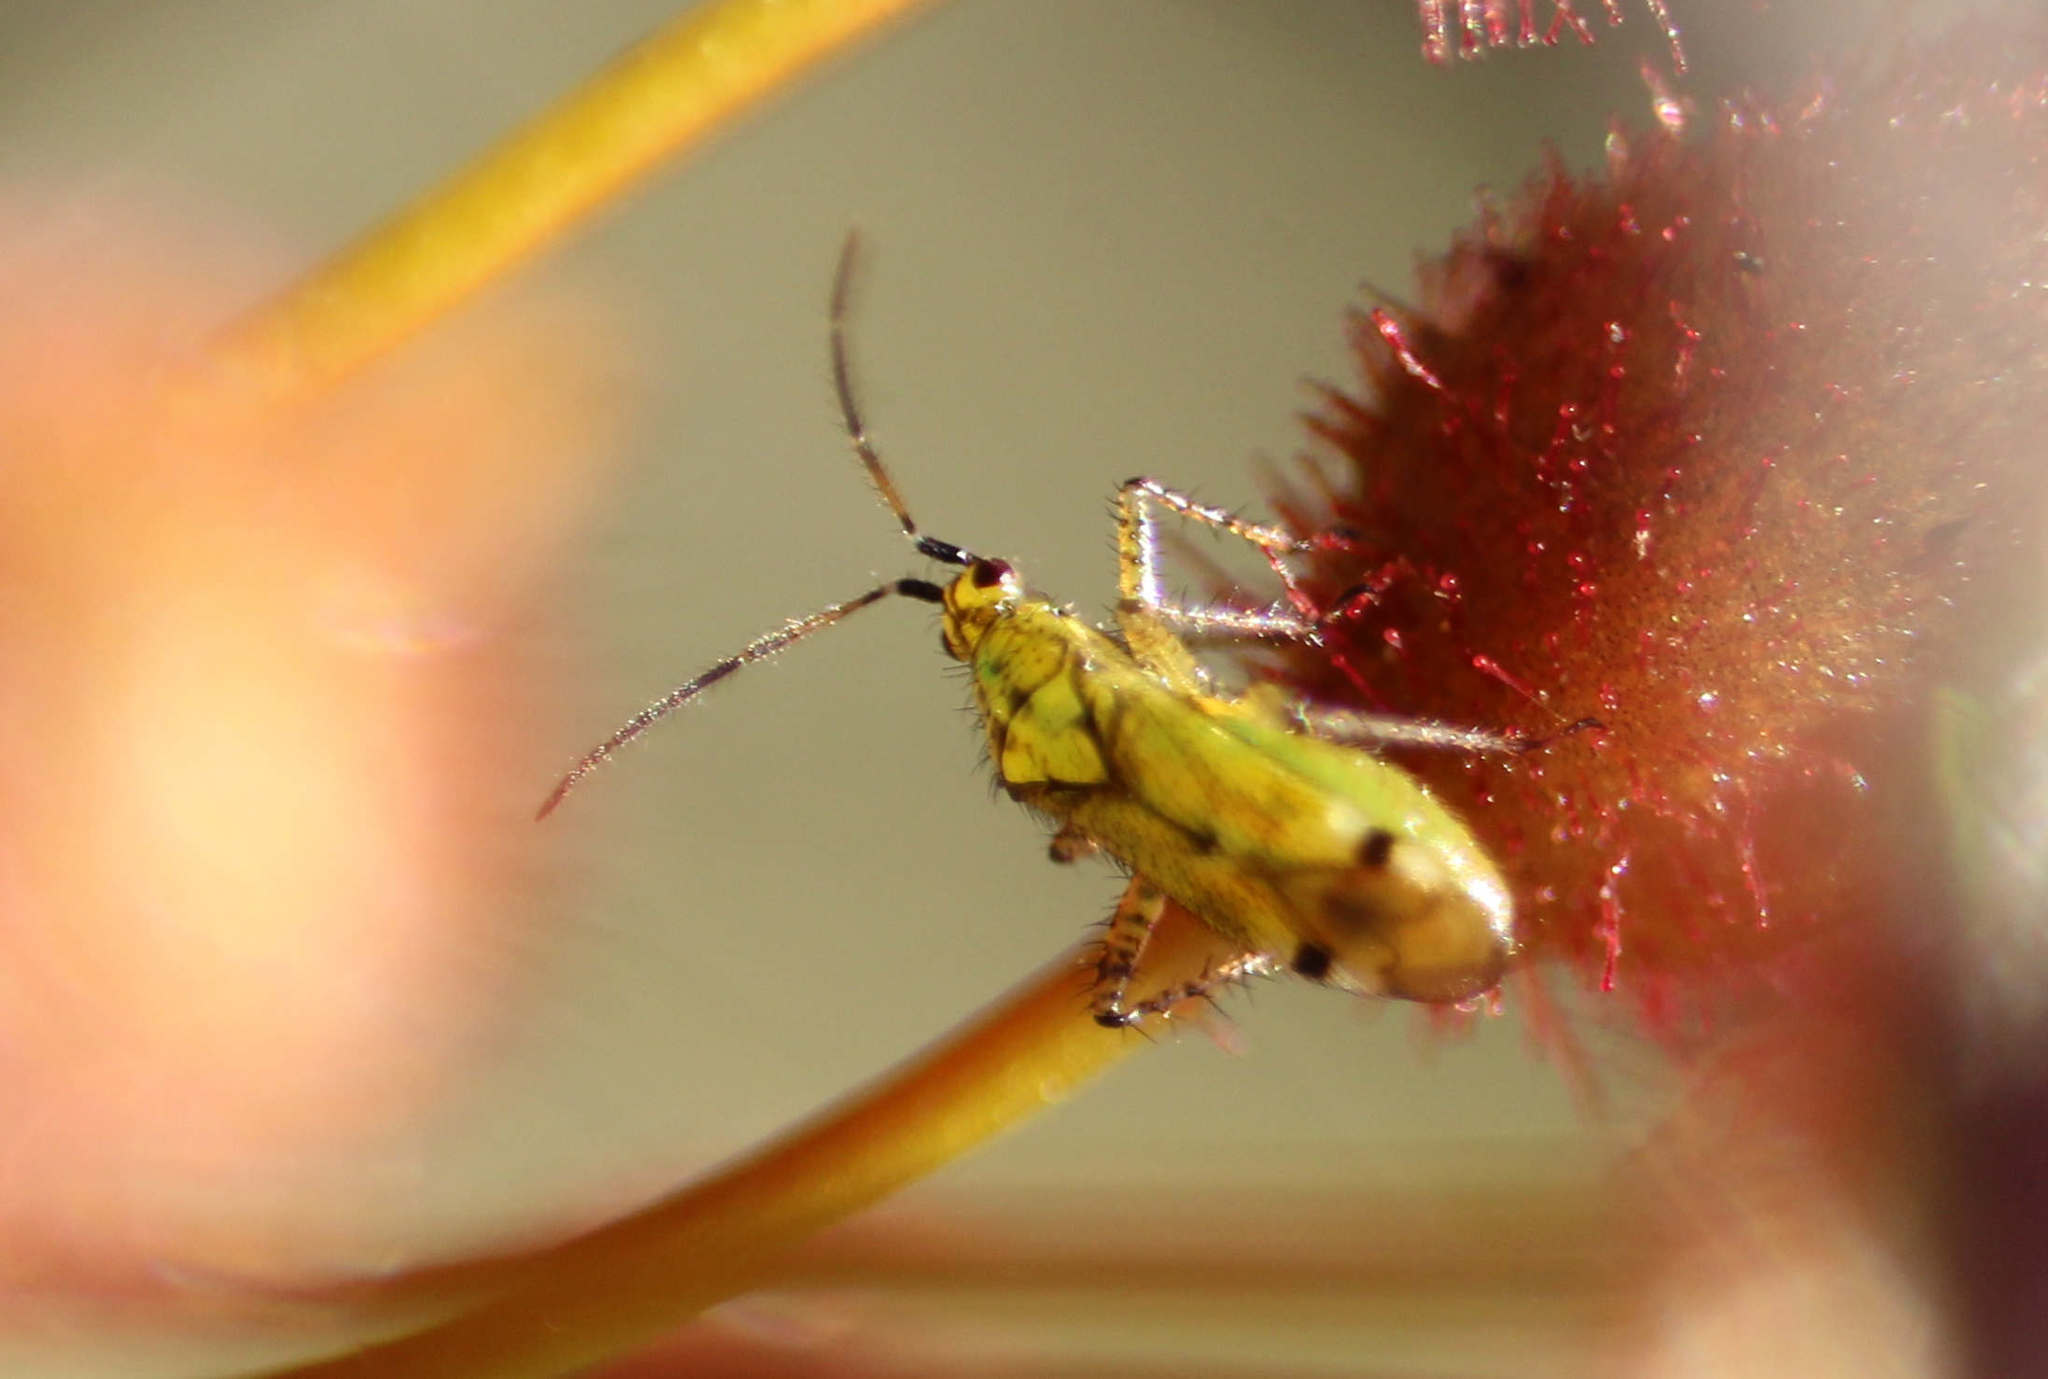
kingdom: Animalia
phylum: Arthropoda
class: Insecta
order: Hemiptera
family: Miridae
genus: Setocoris
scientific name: Setocoris droserae
